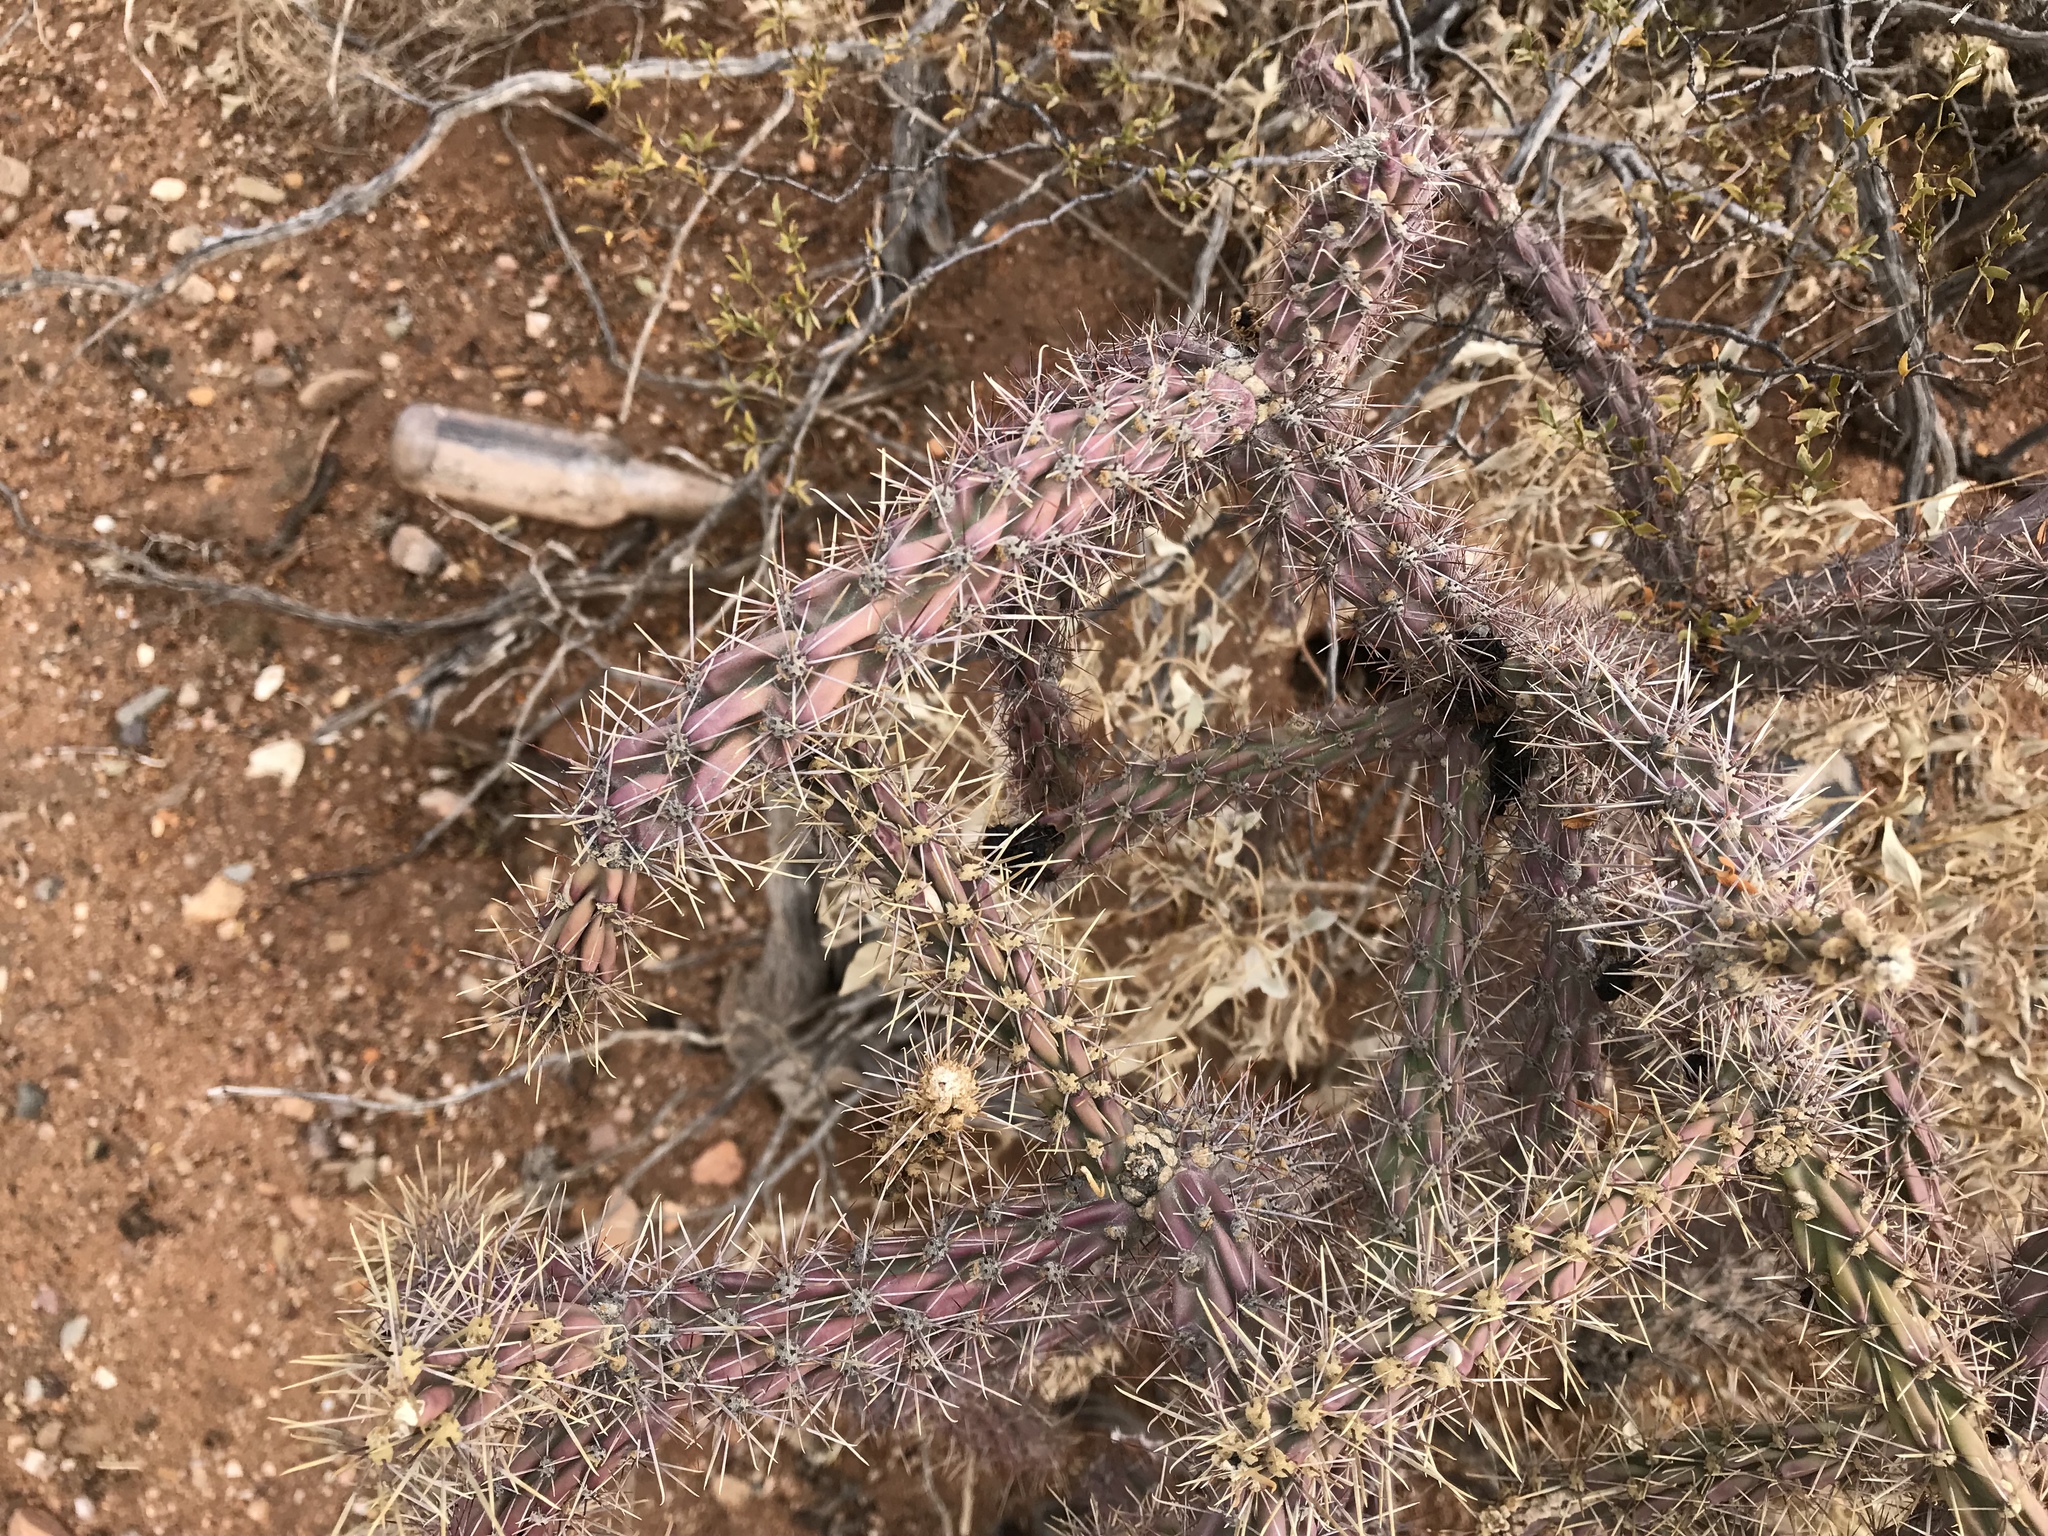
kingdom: Plantae
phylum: Tracheophyta
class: Magnoliopsida
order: Caryophyllales
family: Cactaceae
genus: Cylindropuntia
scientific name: Cylindropuntia thurberi
